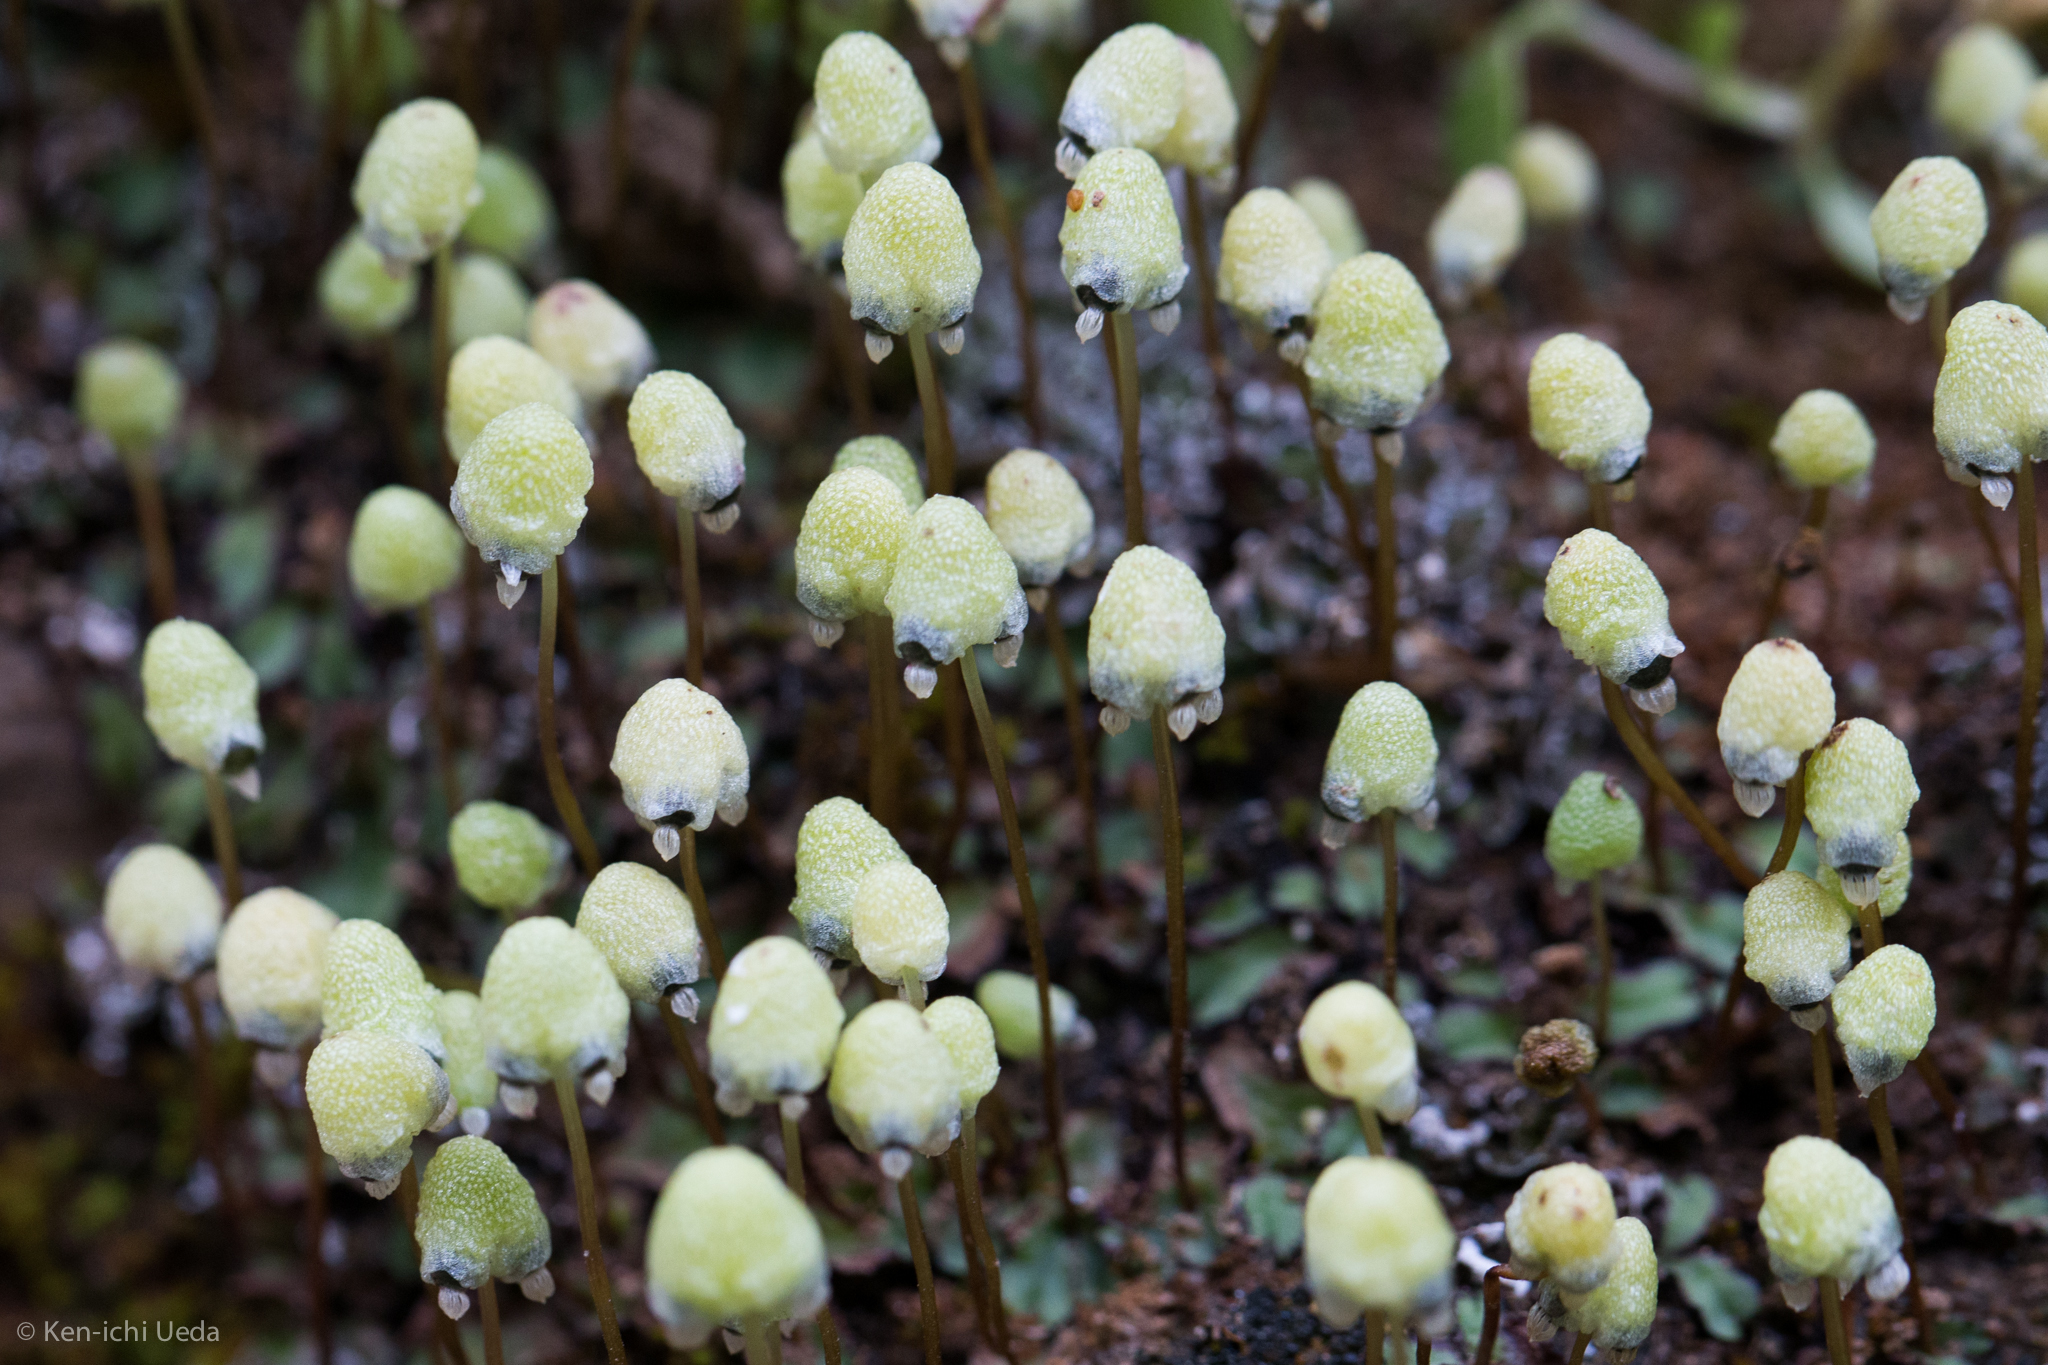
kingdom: Plantae
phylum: Marchantiophyta
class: Marchantiopsida
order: Marchantiales
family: Aytoniaceae
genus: Asterella
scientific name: Asterella palmeri
